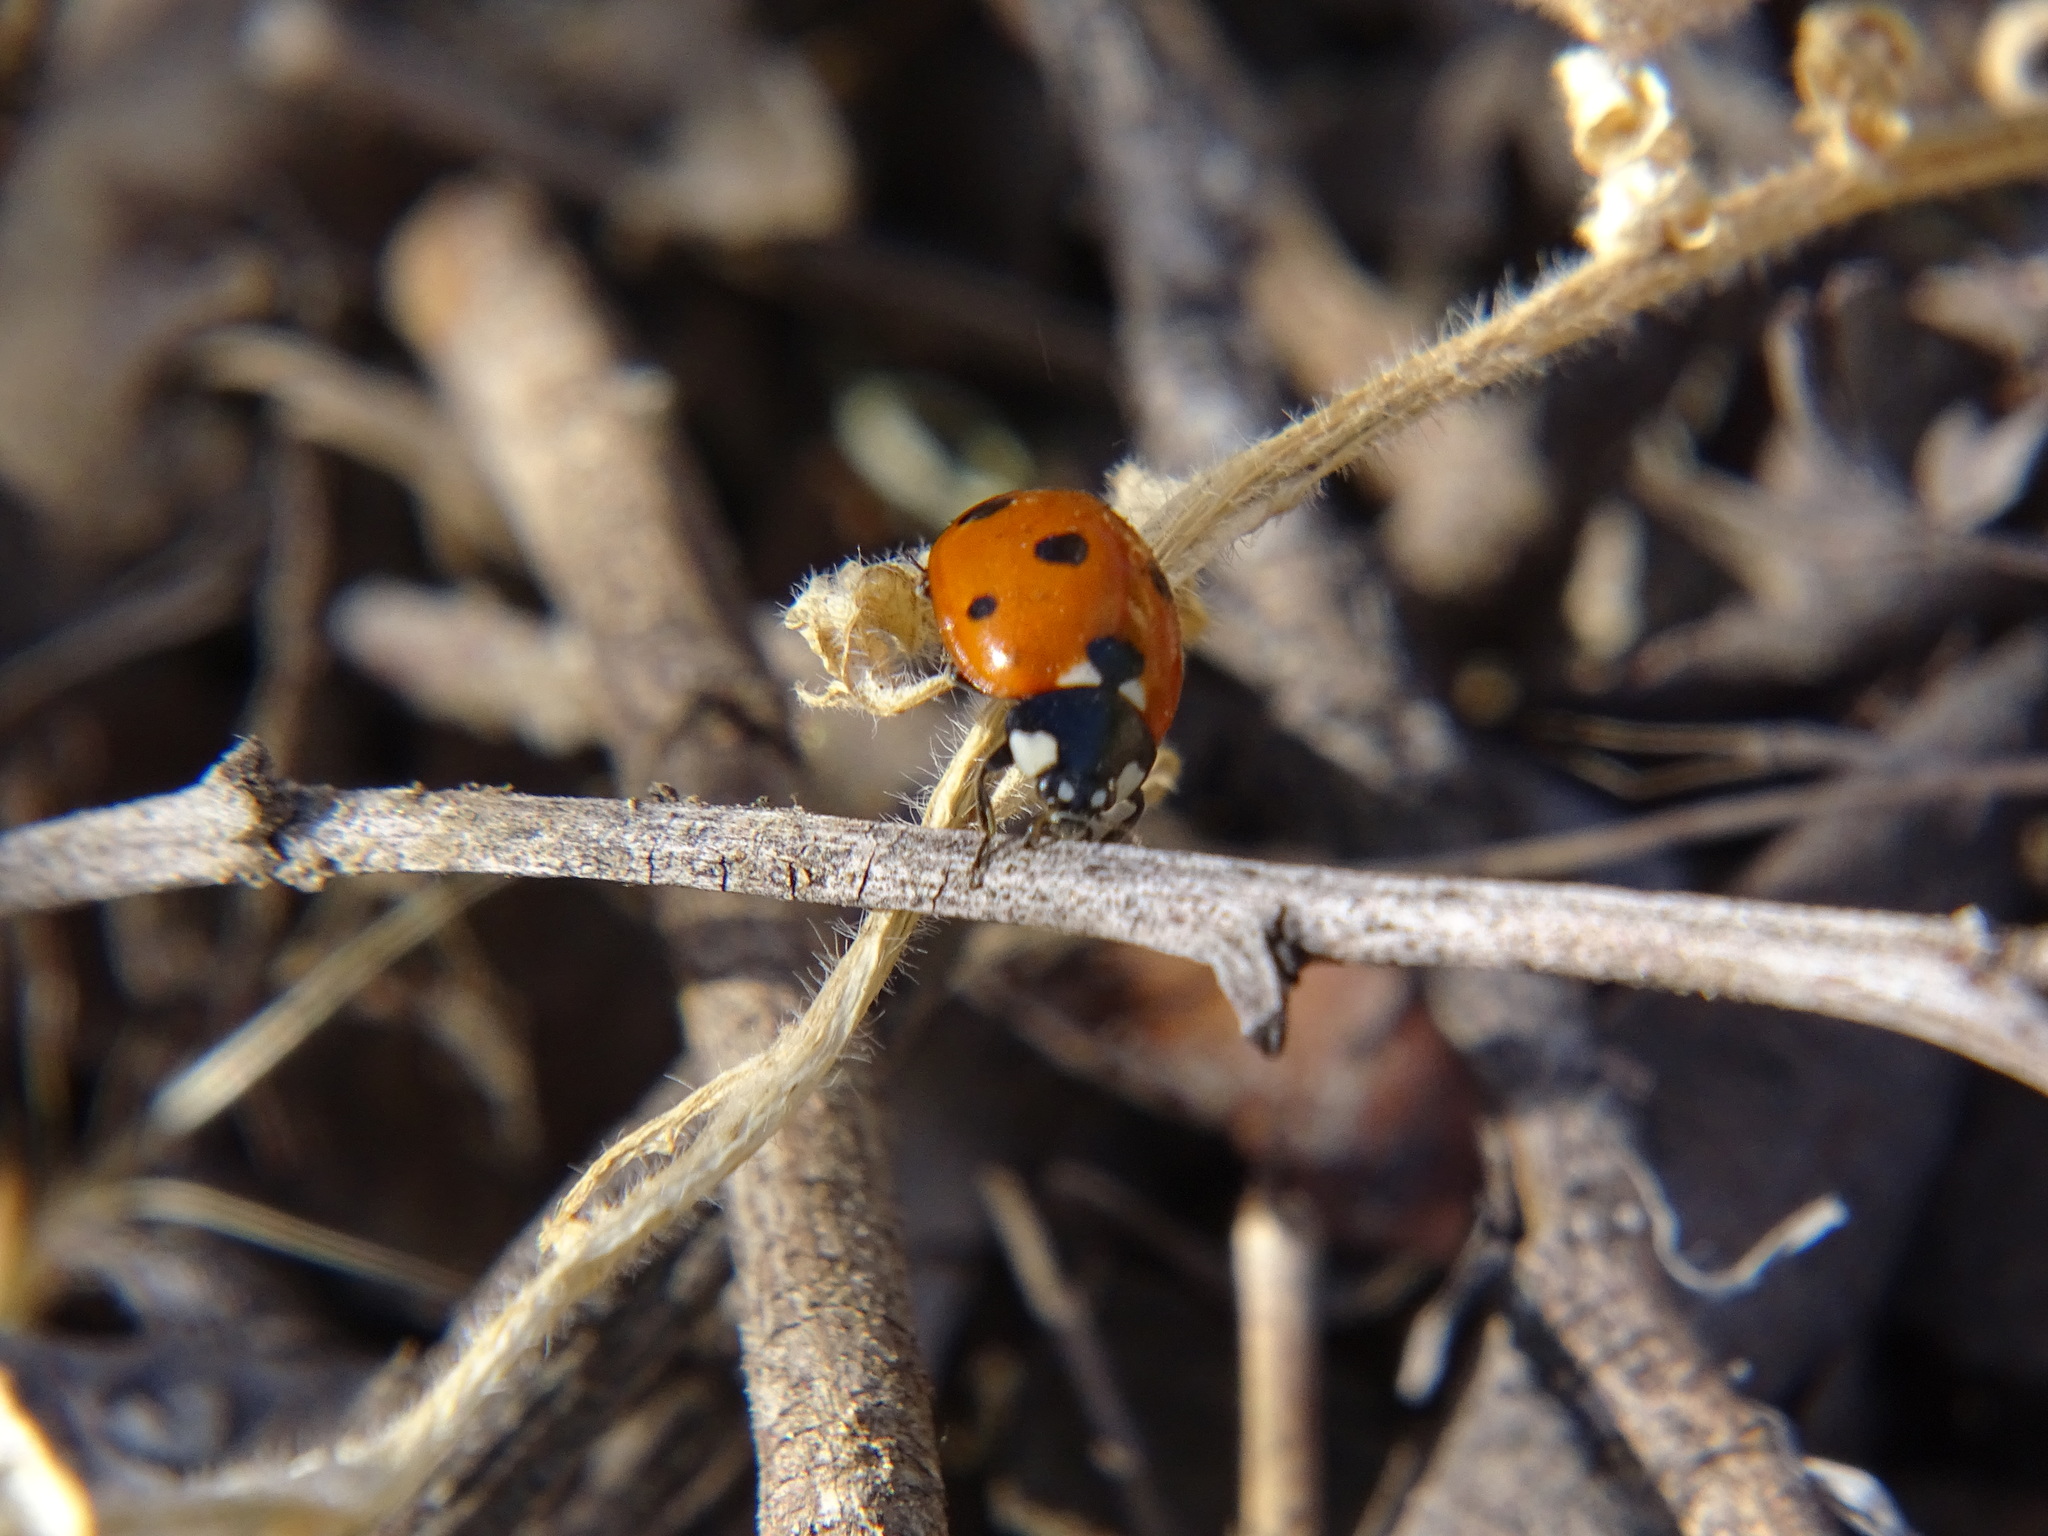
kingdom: Animalia
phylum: Arthropoda
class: Insecta
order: Coleoptera
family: Coccinellidae
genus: Coccinella
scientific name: Coccinella septempunctata
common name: Sevenspotted lady beetle
